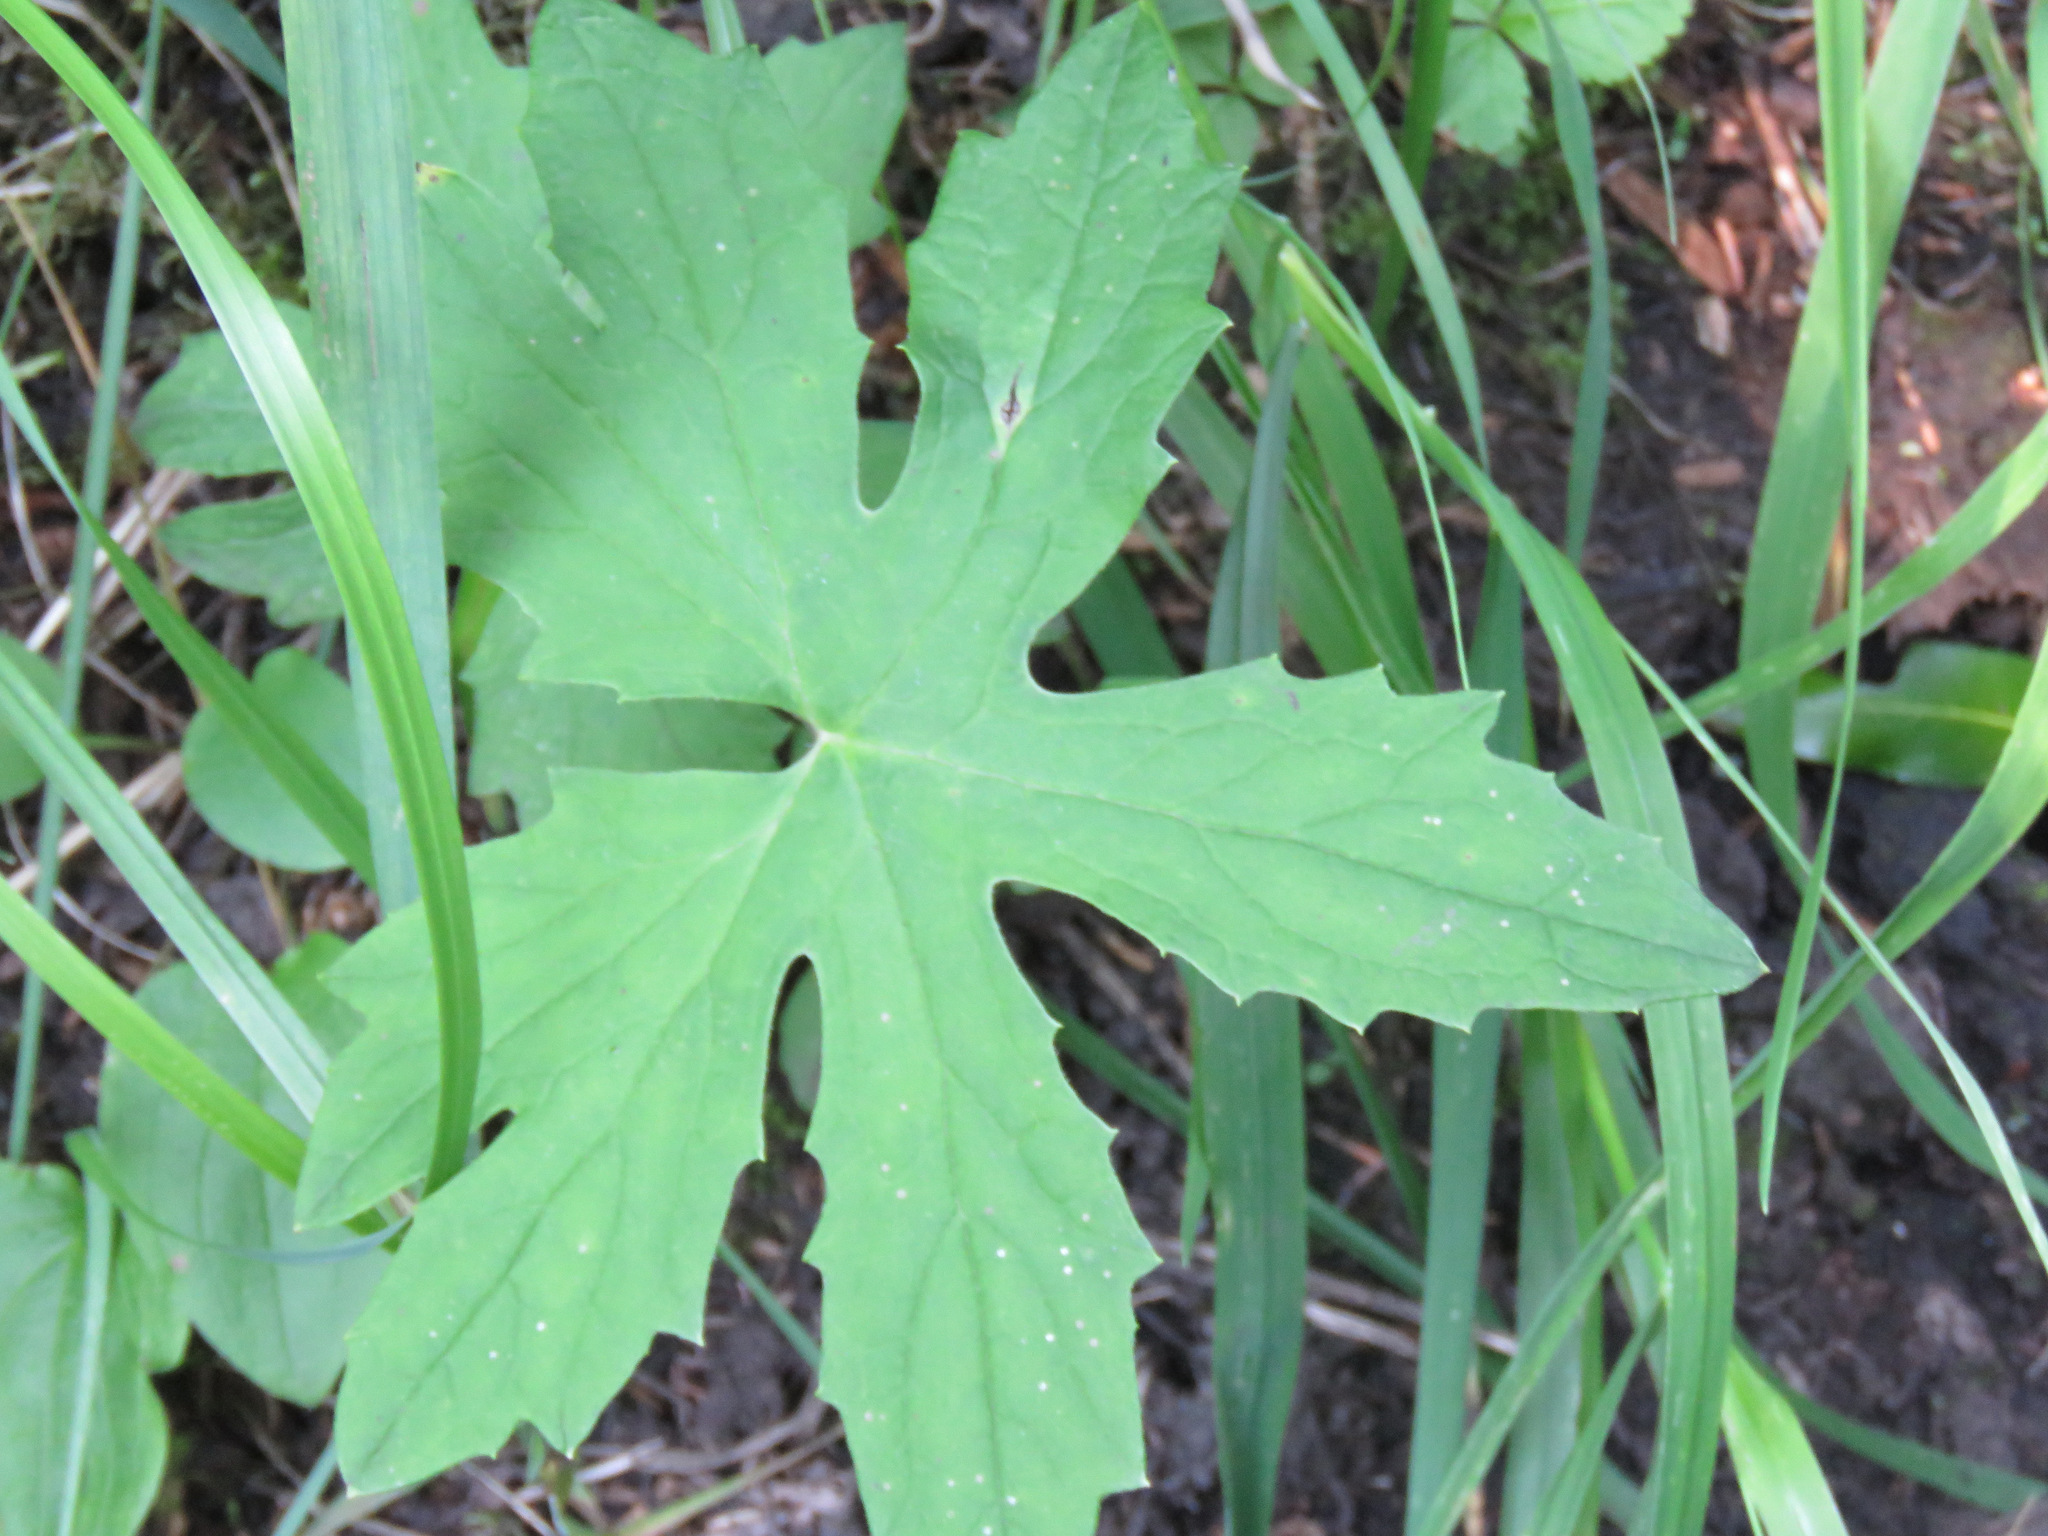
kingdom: Plantae
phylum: Tracheophyta
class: Magnoliopsida
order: Asterales
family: Asteraceae
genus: Petasites
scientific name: Petasites frigidus
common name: Arctic butterbur
